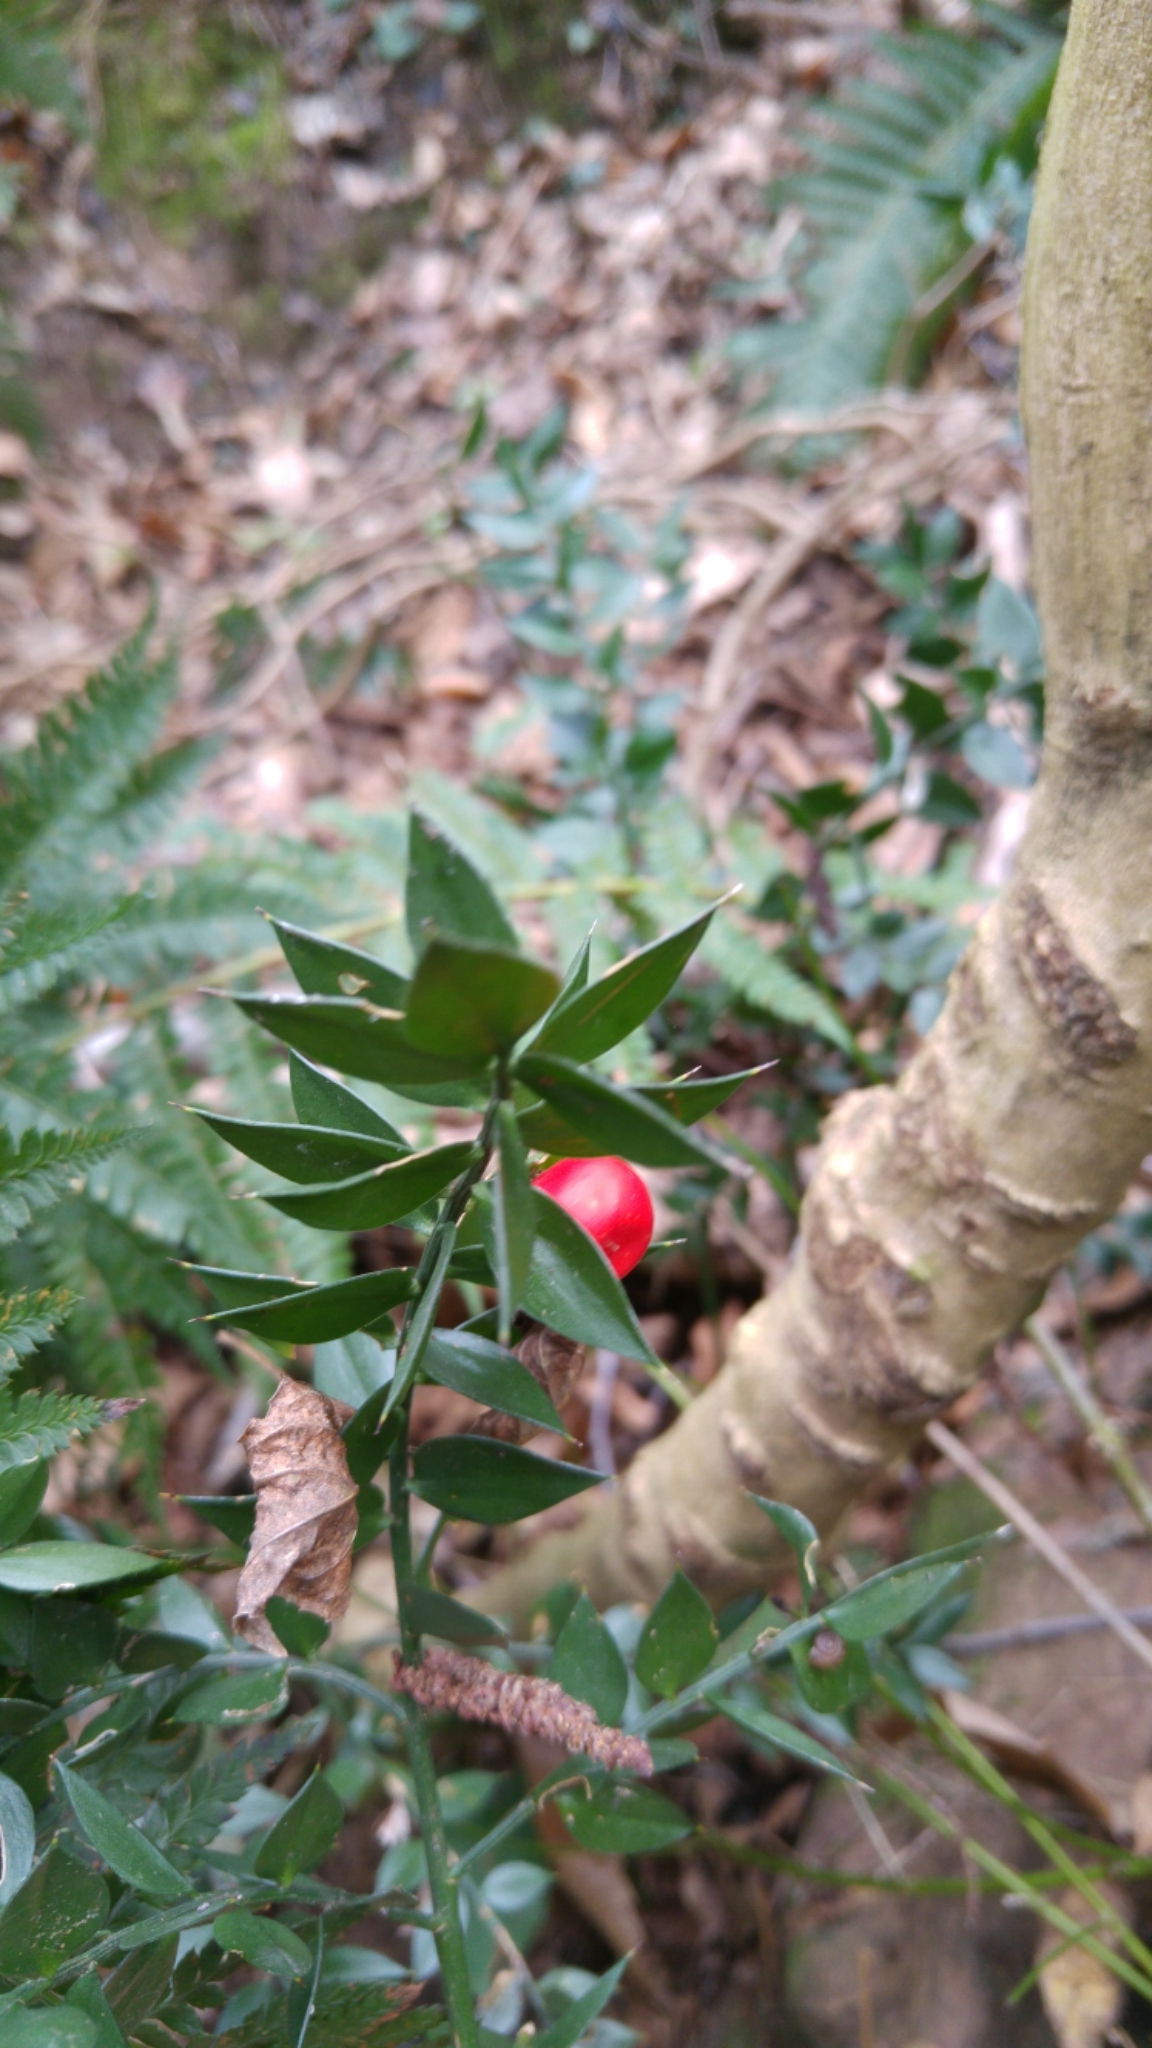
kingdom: Plantae
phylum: Tracheophyta
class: Liliopsida
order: Asparagales
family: Asparagaceae
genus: Ruscus
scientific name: Ruscus aculeatus
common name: Butcher's-broom
